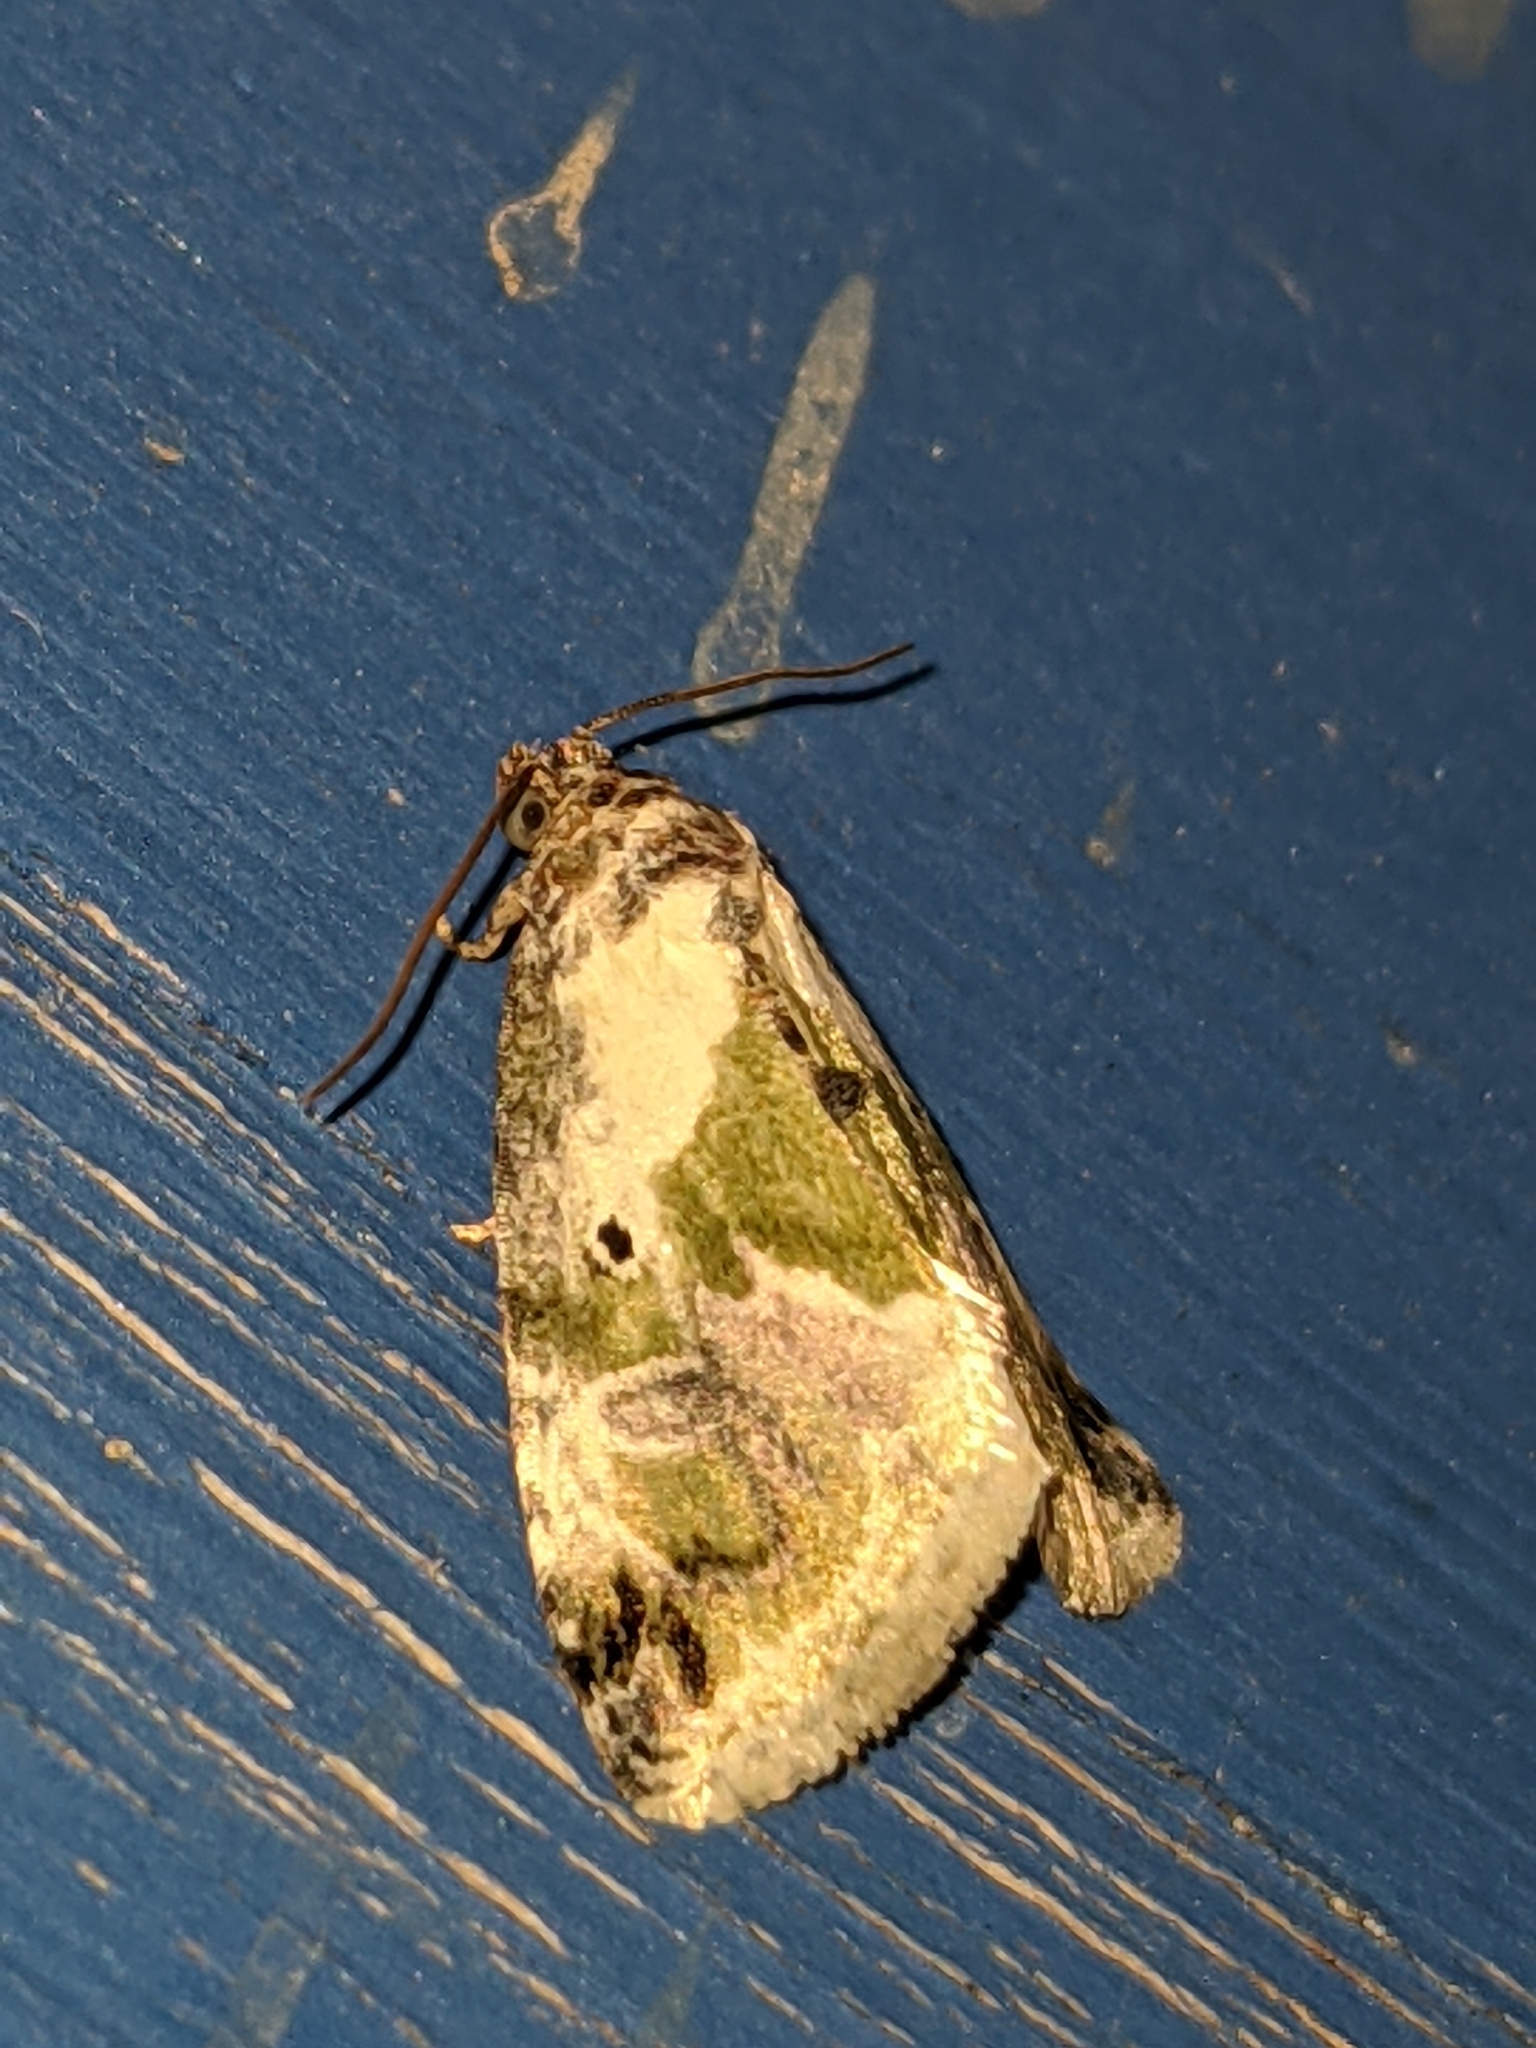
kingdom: Animalia
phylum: Arthropoda
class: Insecta
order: Lepidoptera
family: Noctuidae
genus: Maliattha
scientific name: Maliattha synochitis
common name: Black-dotted glyph
